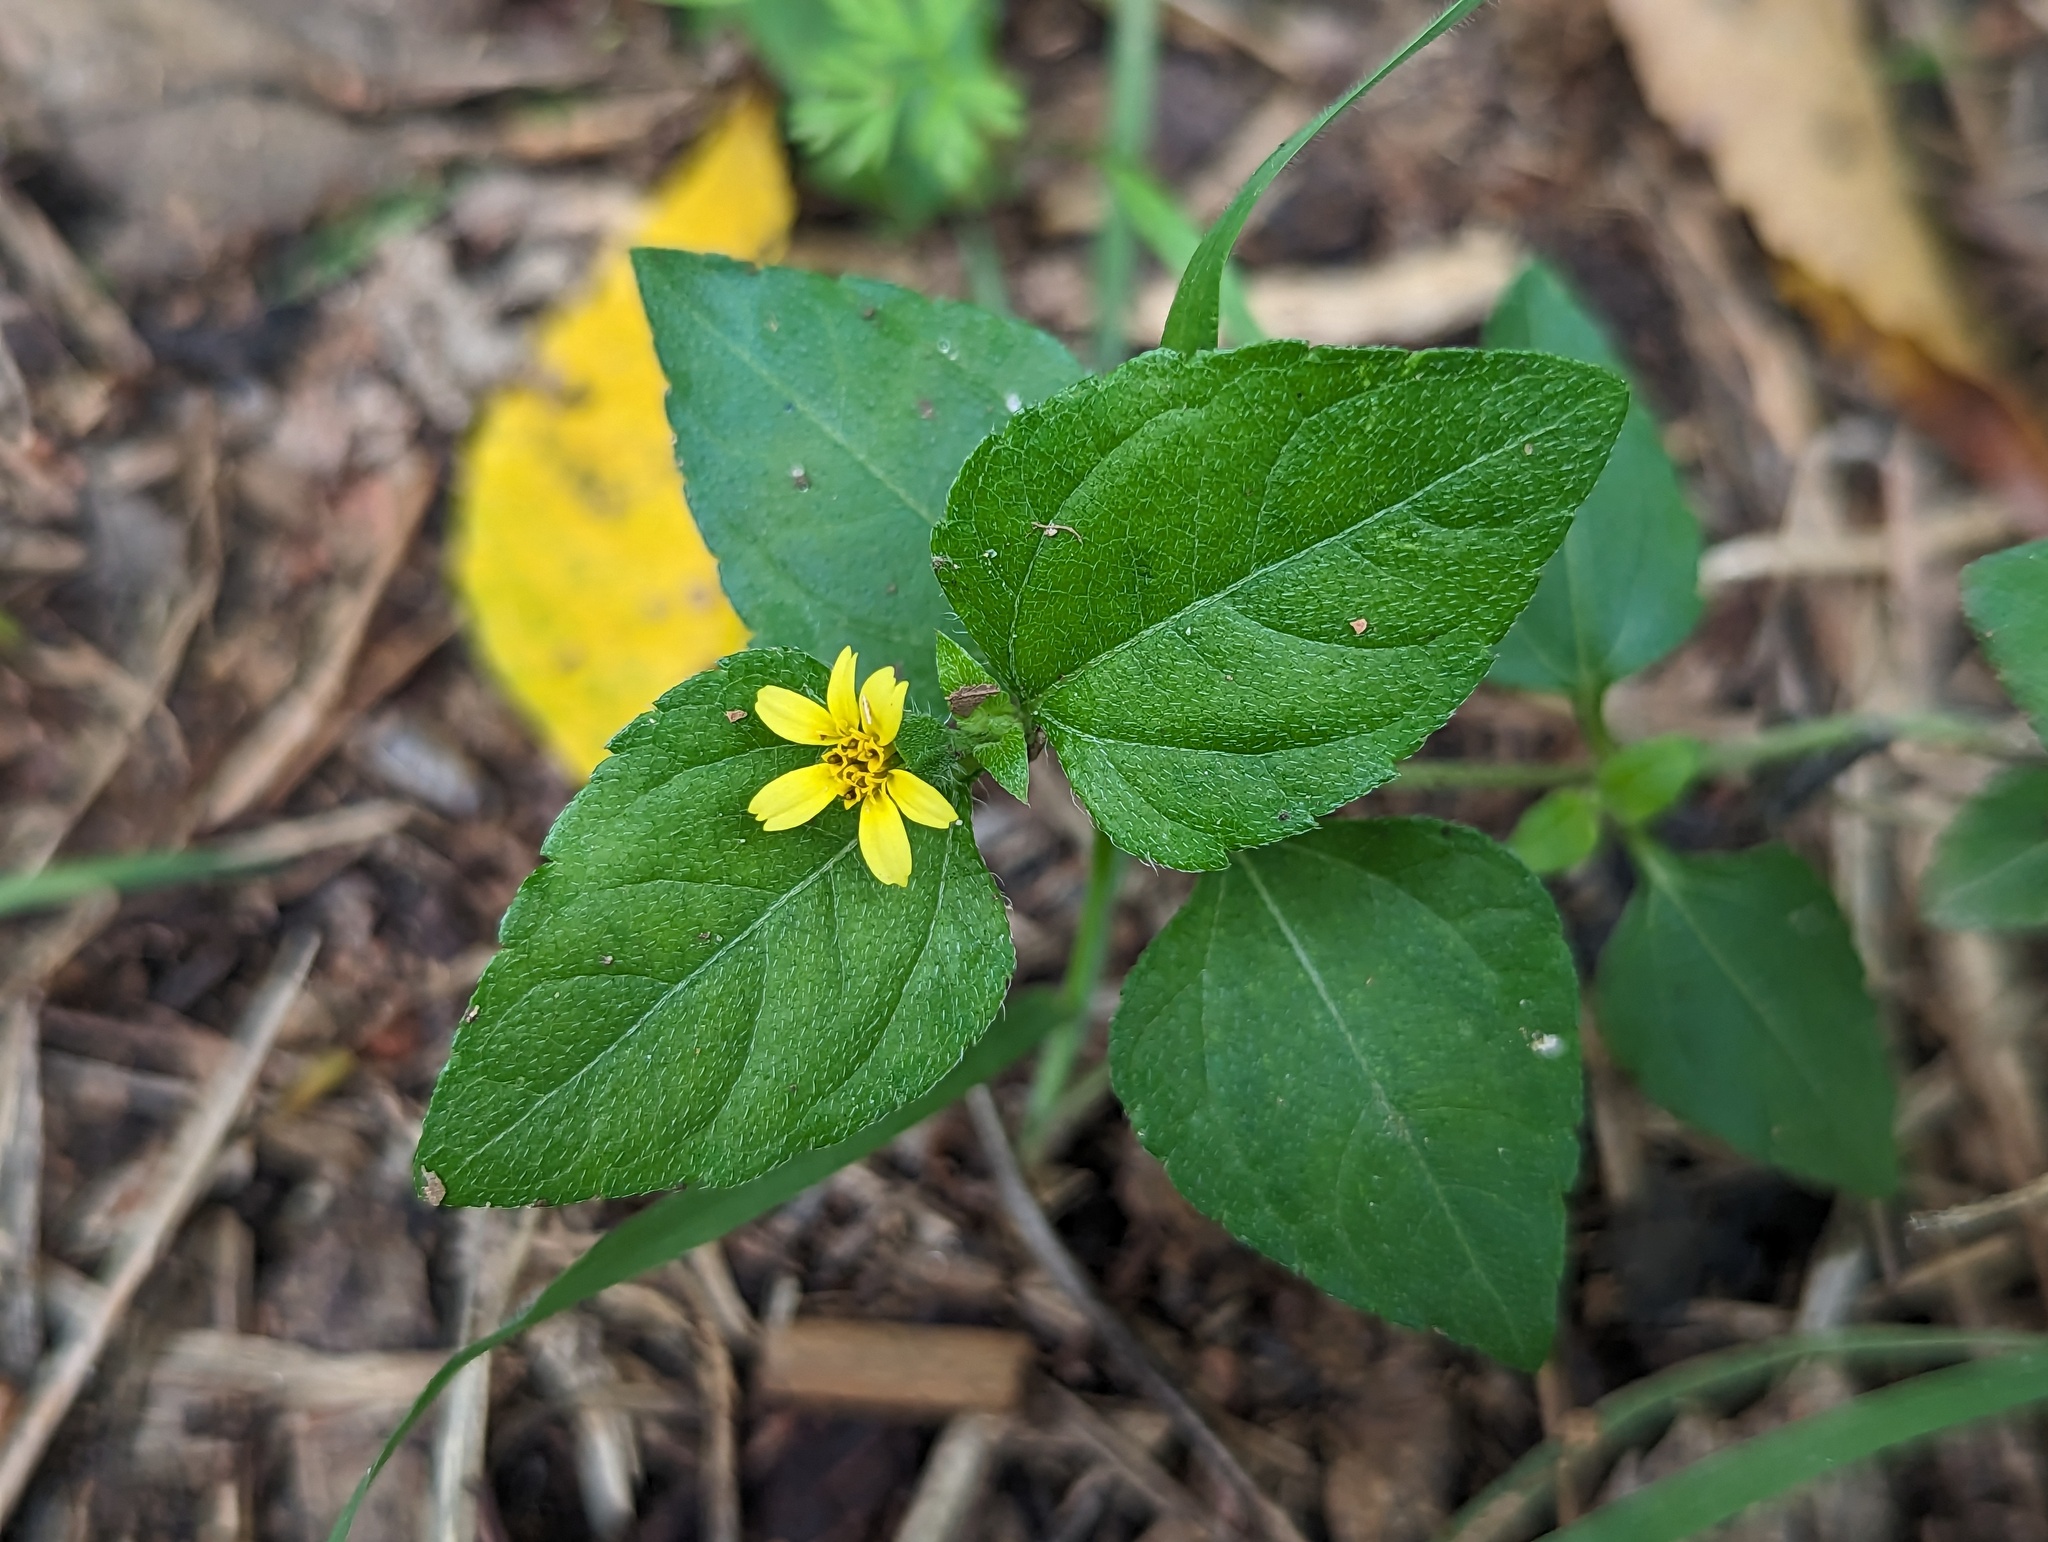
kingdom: Plantae
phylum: Tracheophyta
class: Magnoliopsida
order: Asterales
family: Asteraceae
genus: Calyptocarpus
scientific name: Calyptocarpus vialis
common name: Straggler daisy
